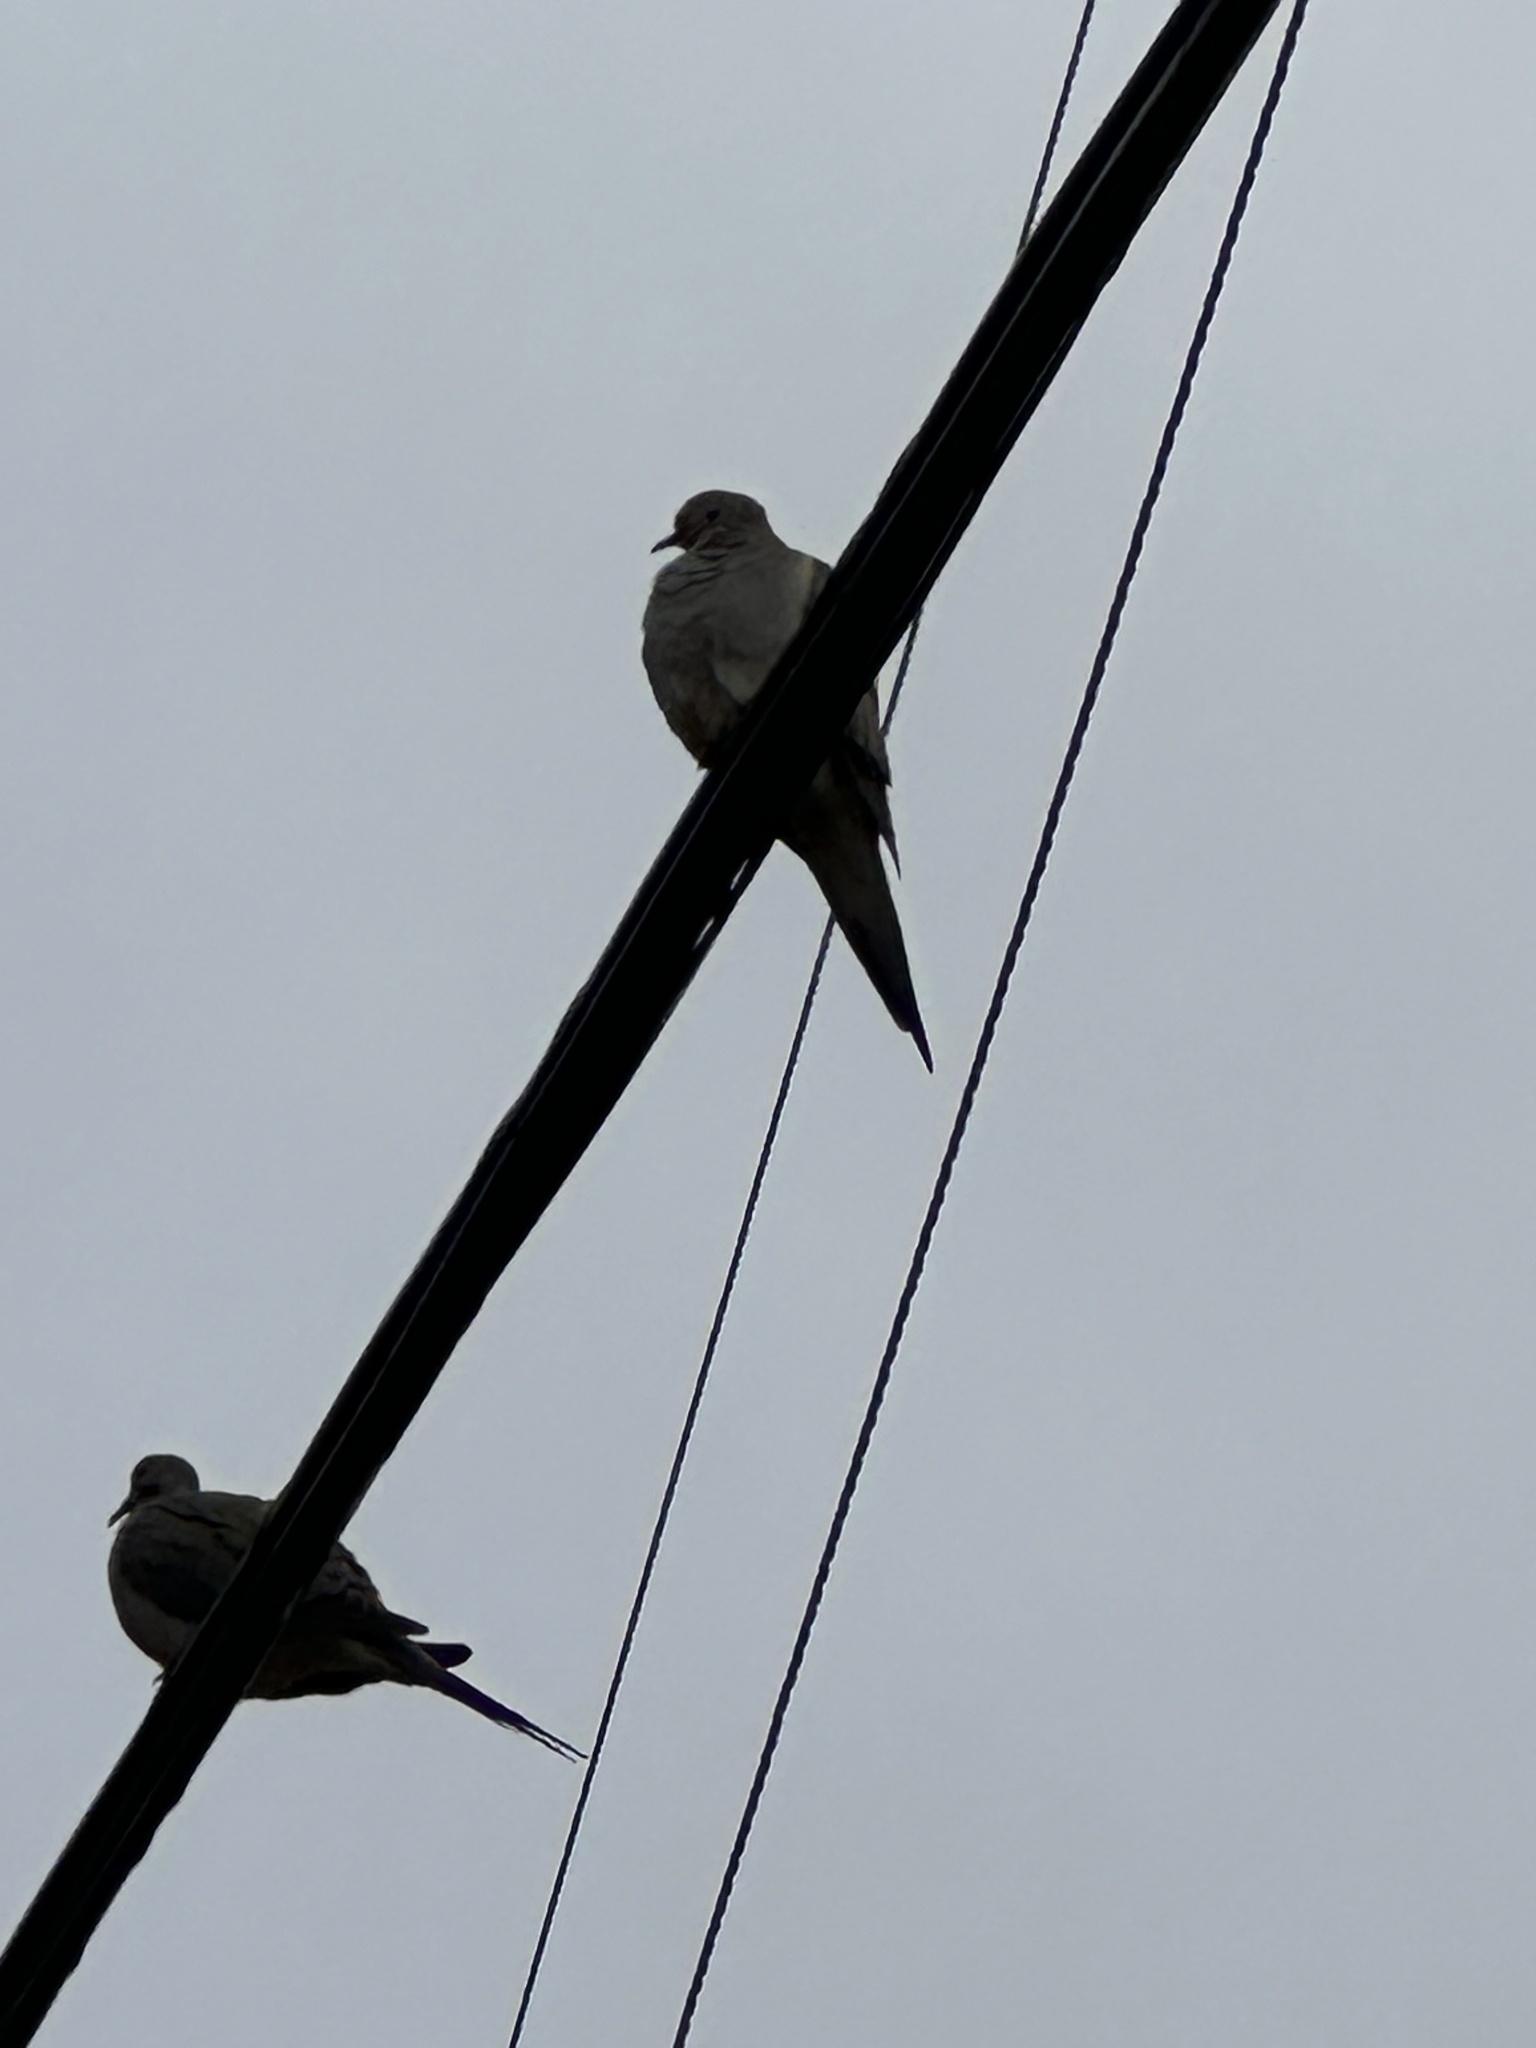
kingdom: Animalia
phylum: Chordata
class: Aves
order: Columbiformes
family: Columbidae
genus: Zenaida
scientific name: Zenaida macroura
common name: Mourning dove
